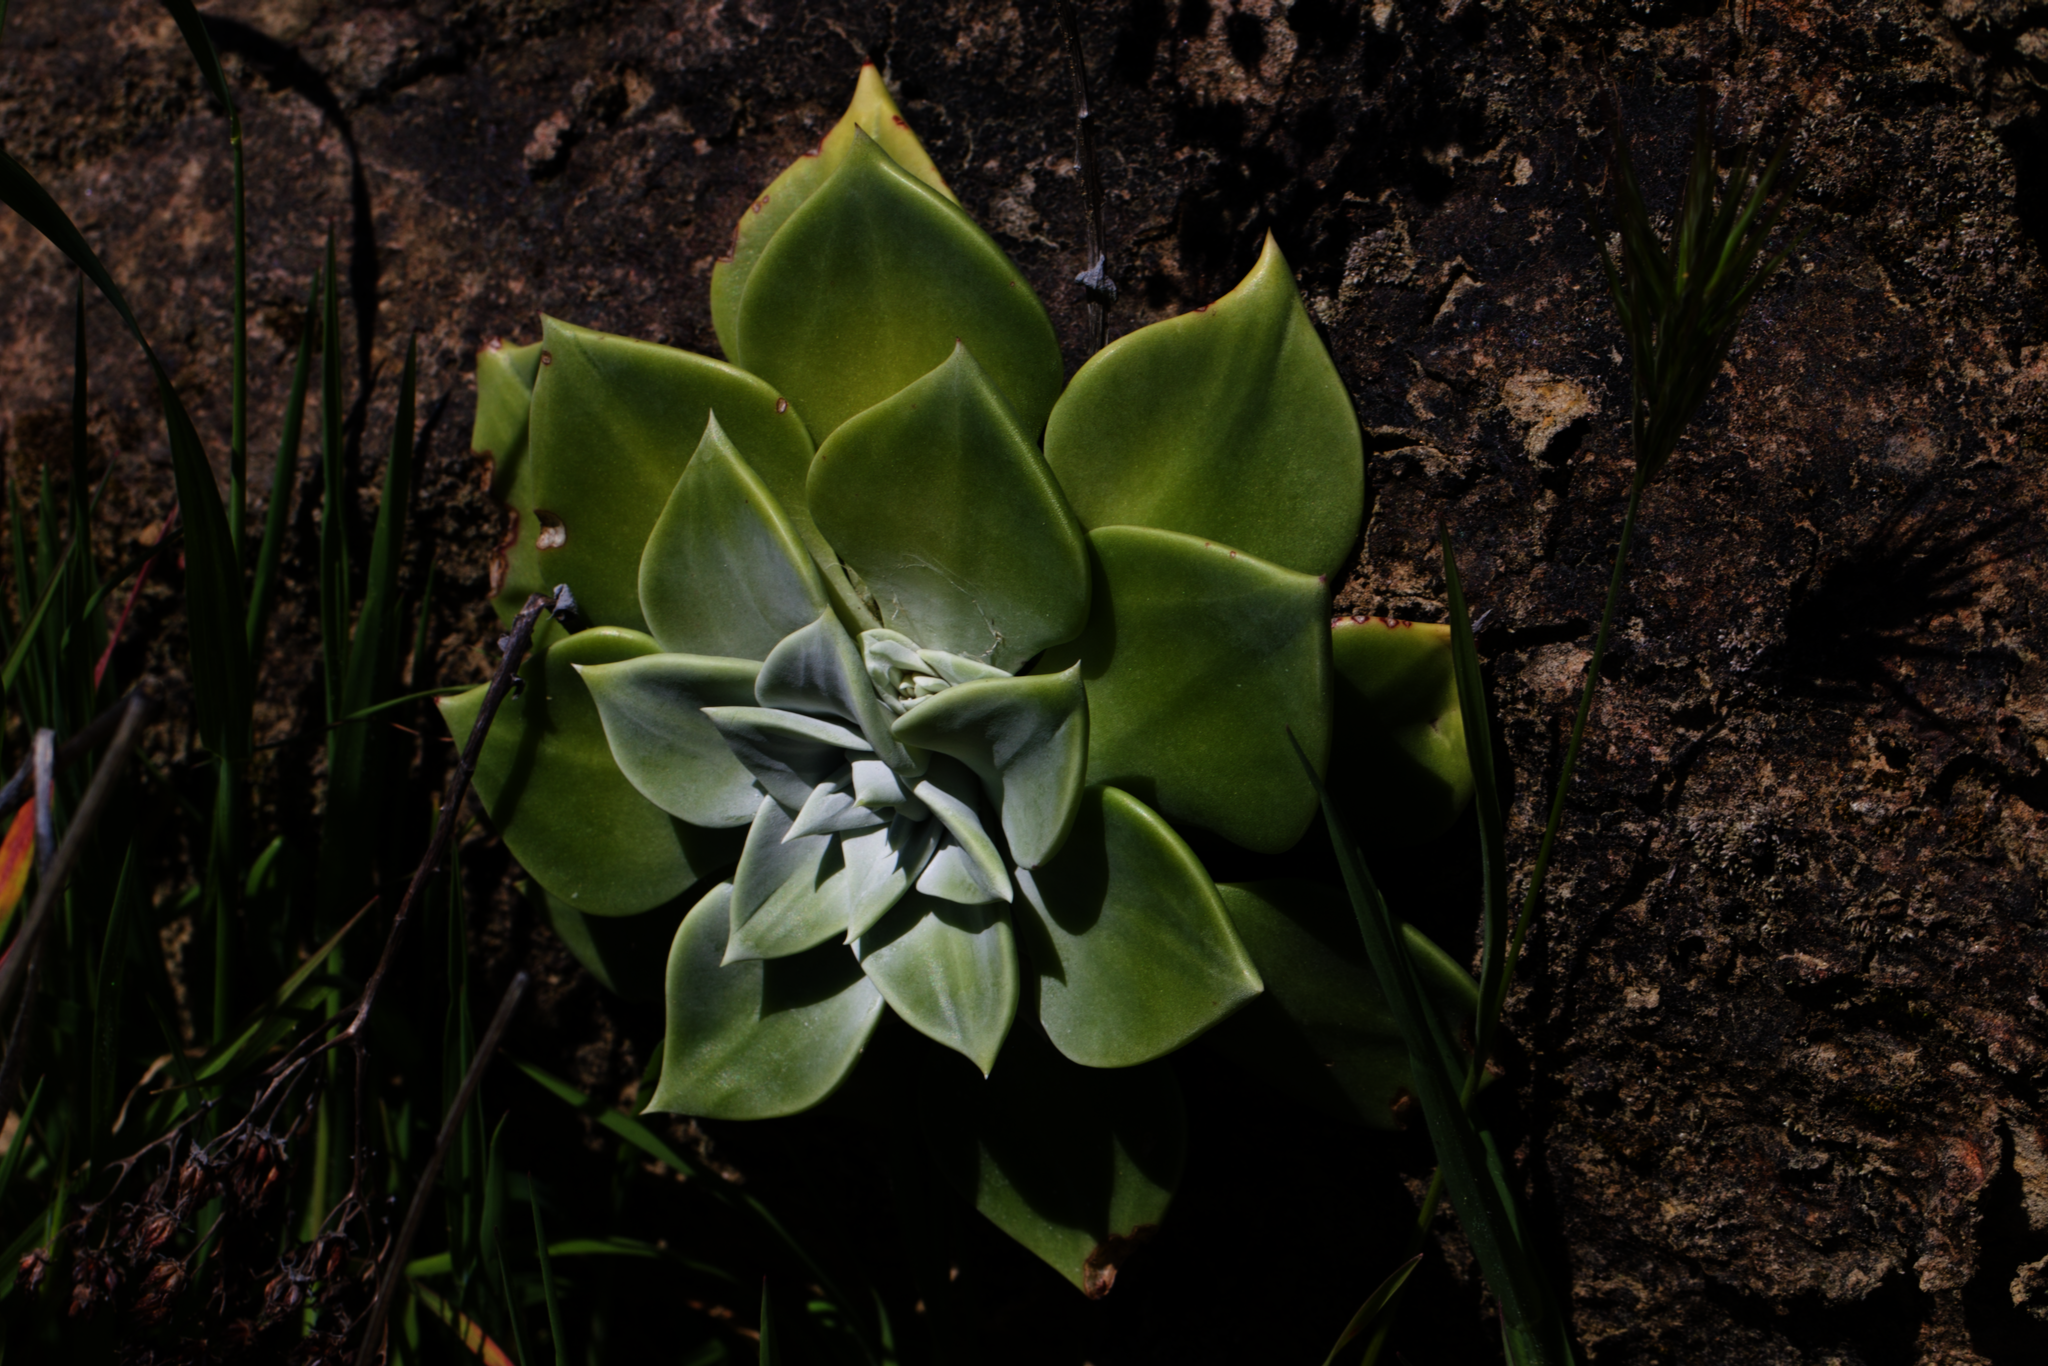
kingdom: Plantae
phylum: Tracheophyta
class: Magnoliopsida
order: Saxifragales
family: Crassulaceae
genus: Dudleya
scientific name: Dudleya cymosa
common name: Canyon dudleya
